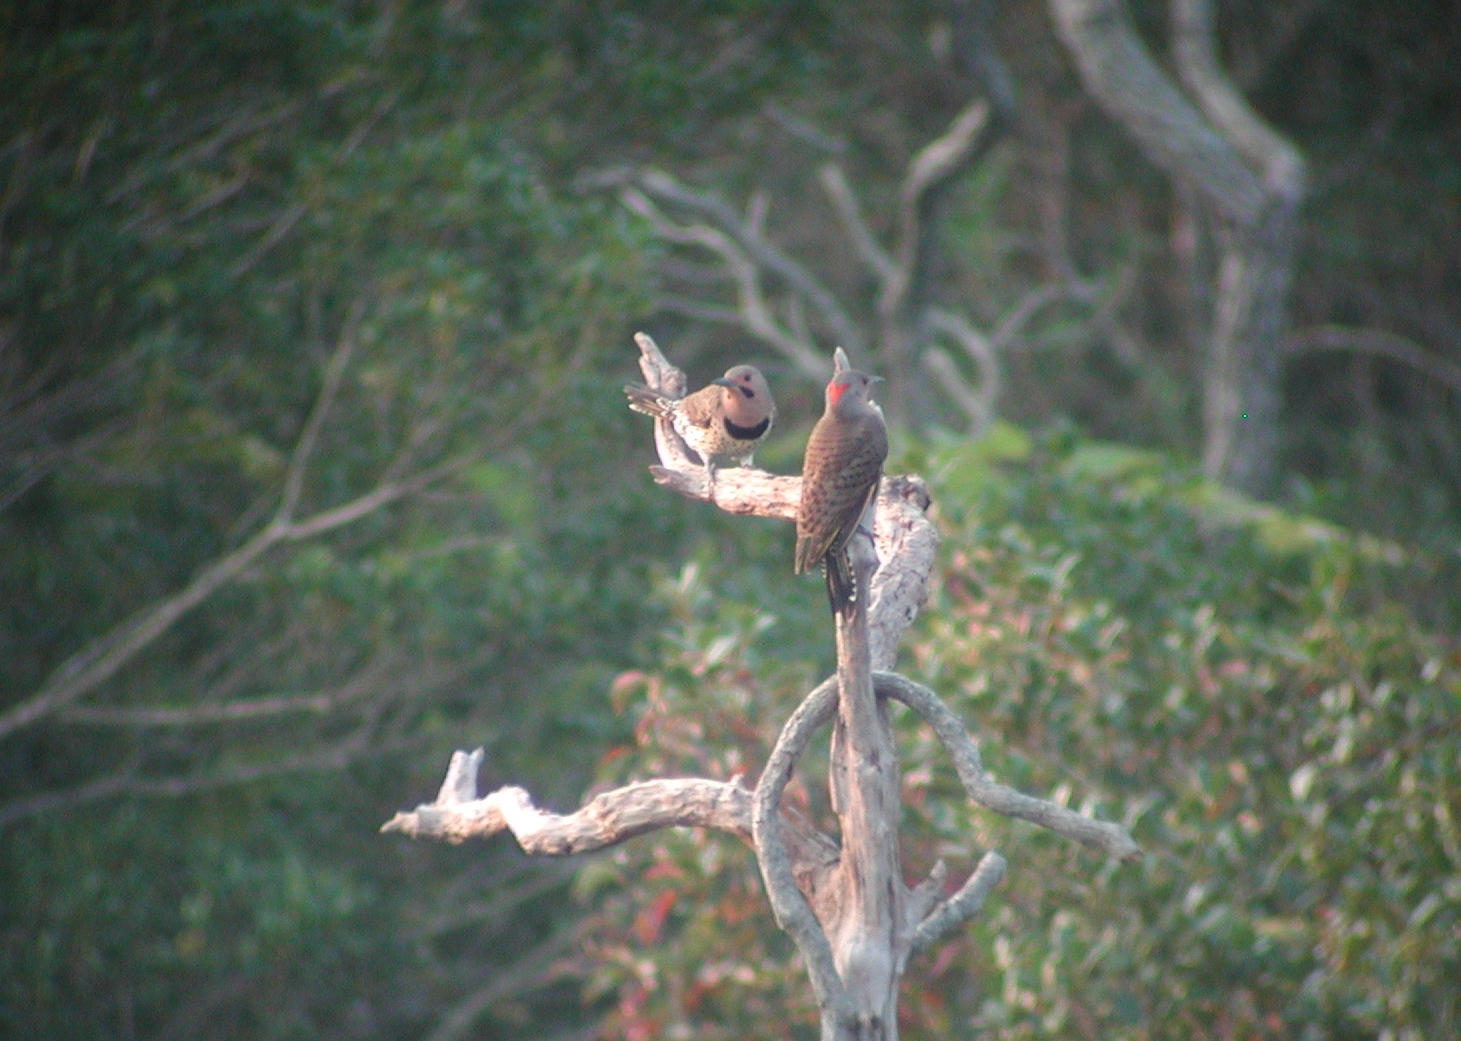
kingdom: Animalia
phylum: Chordata
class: Aves
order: Piciformes
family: Picidae
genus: Colaptes
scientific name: Colaptes auratus
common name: Northern flicker
